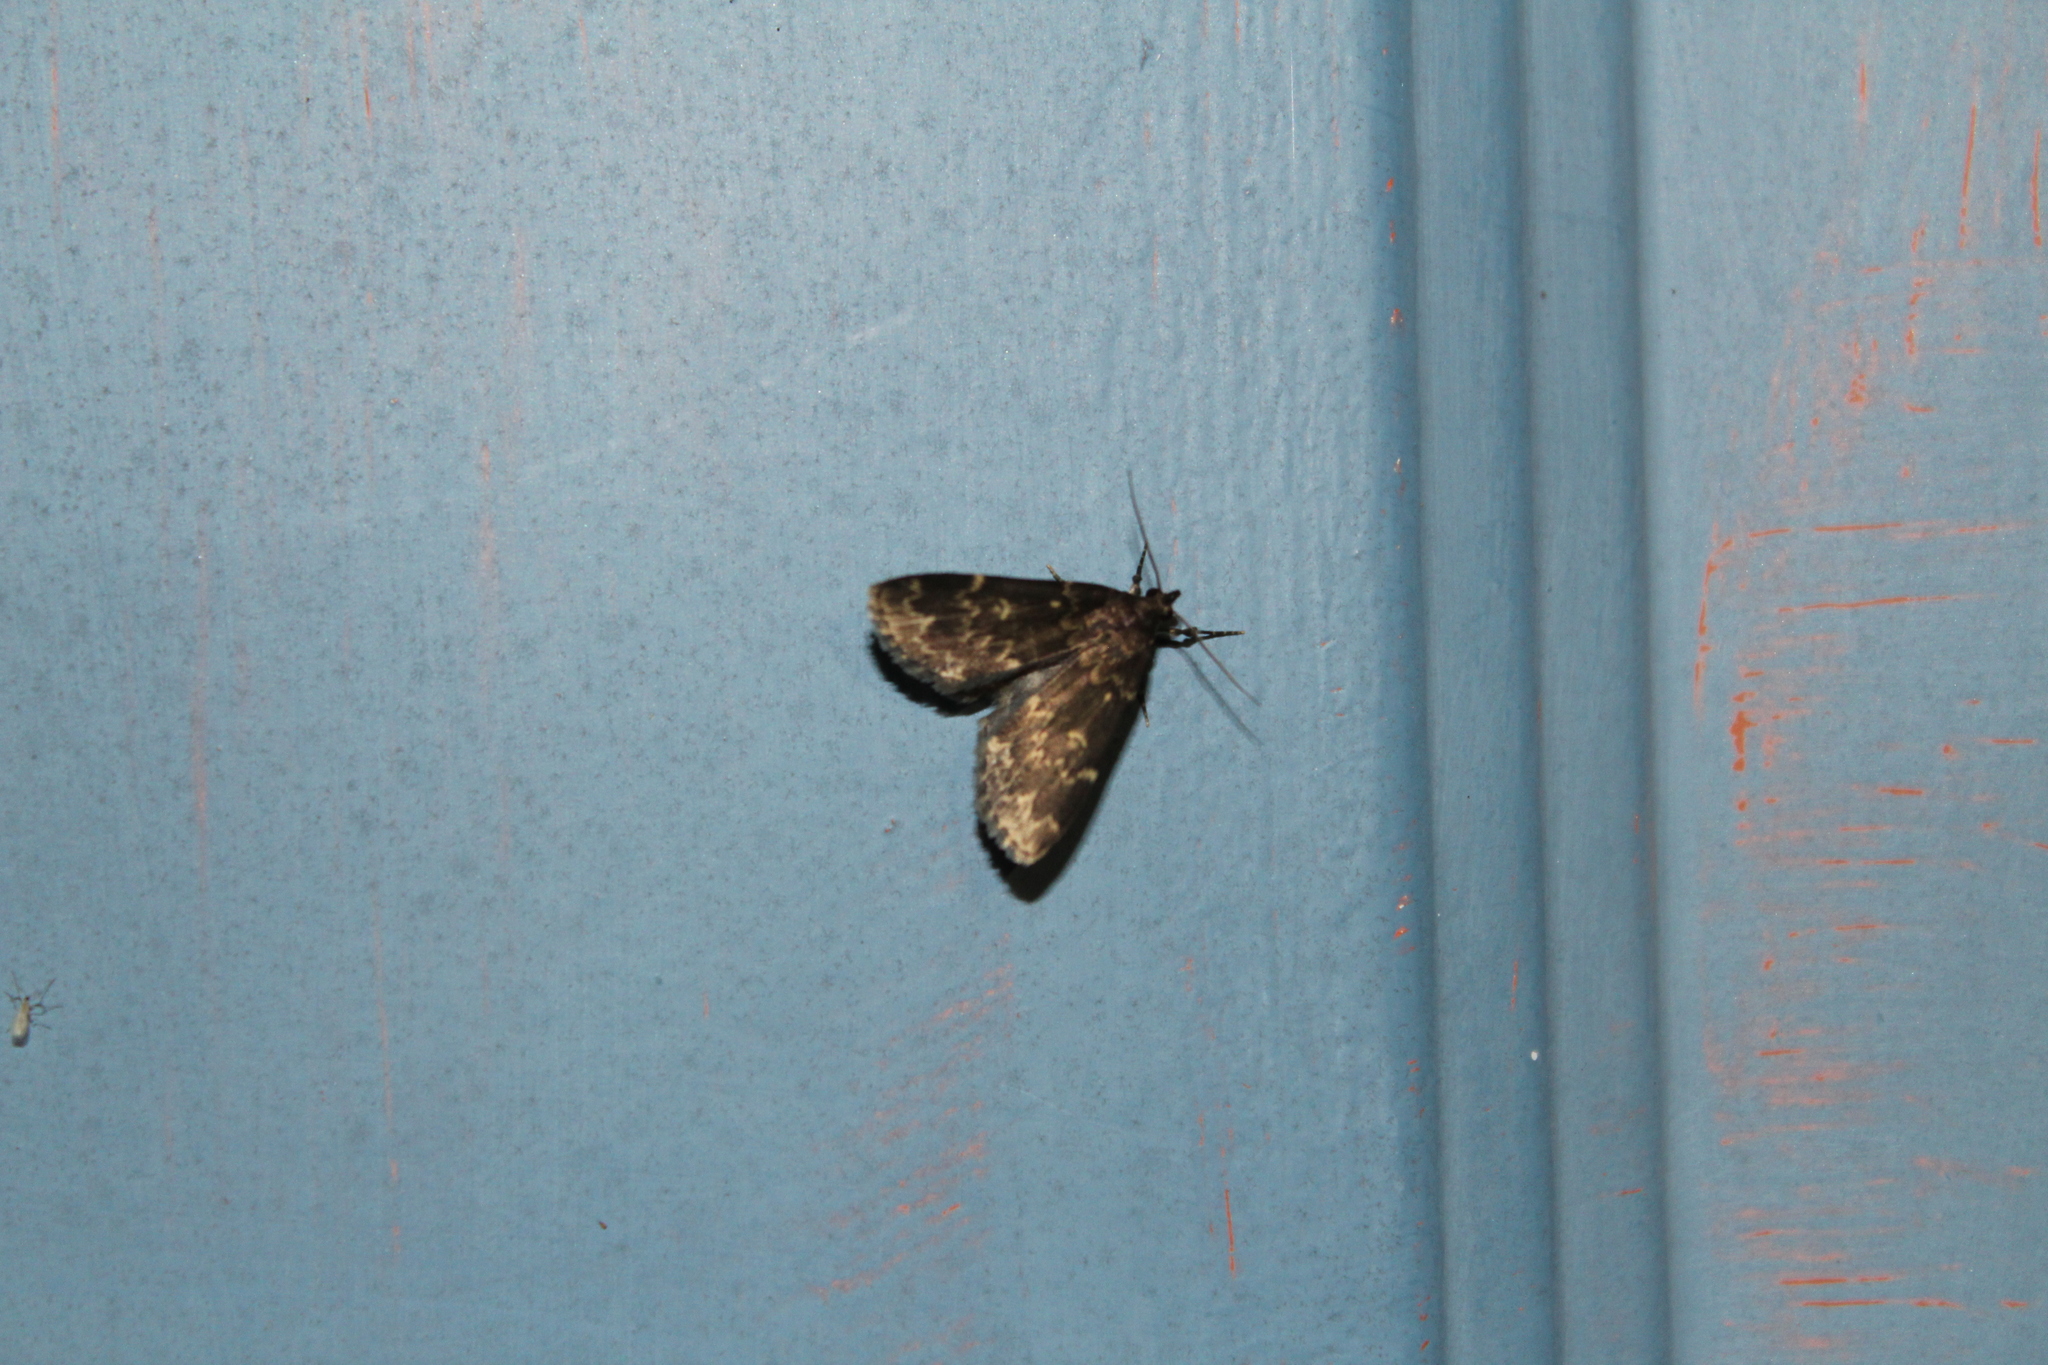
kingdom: Animalia
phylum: Arthropoda
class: Insecta
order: Lepidoptera
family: Erebidae
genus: Idia
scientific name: Idia lubricalis
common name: Twin-striped tabby
